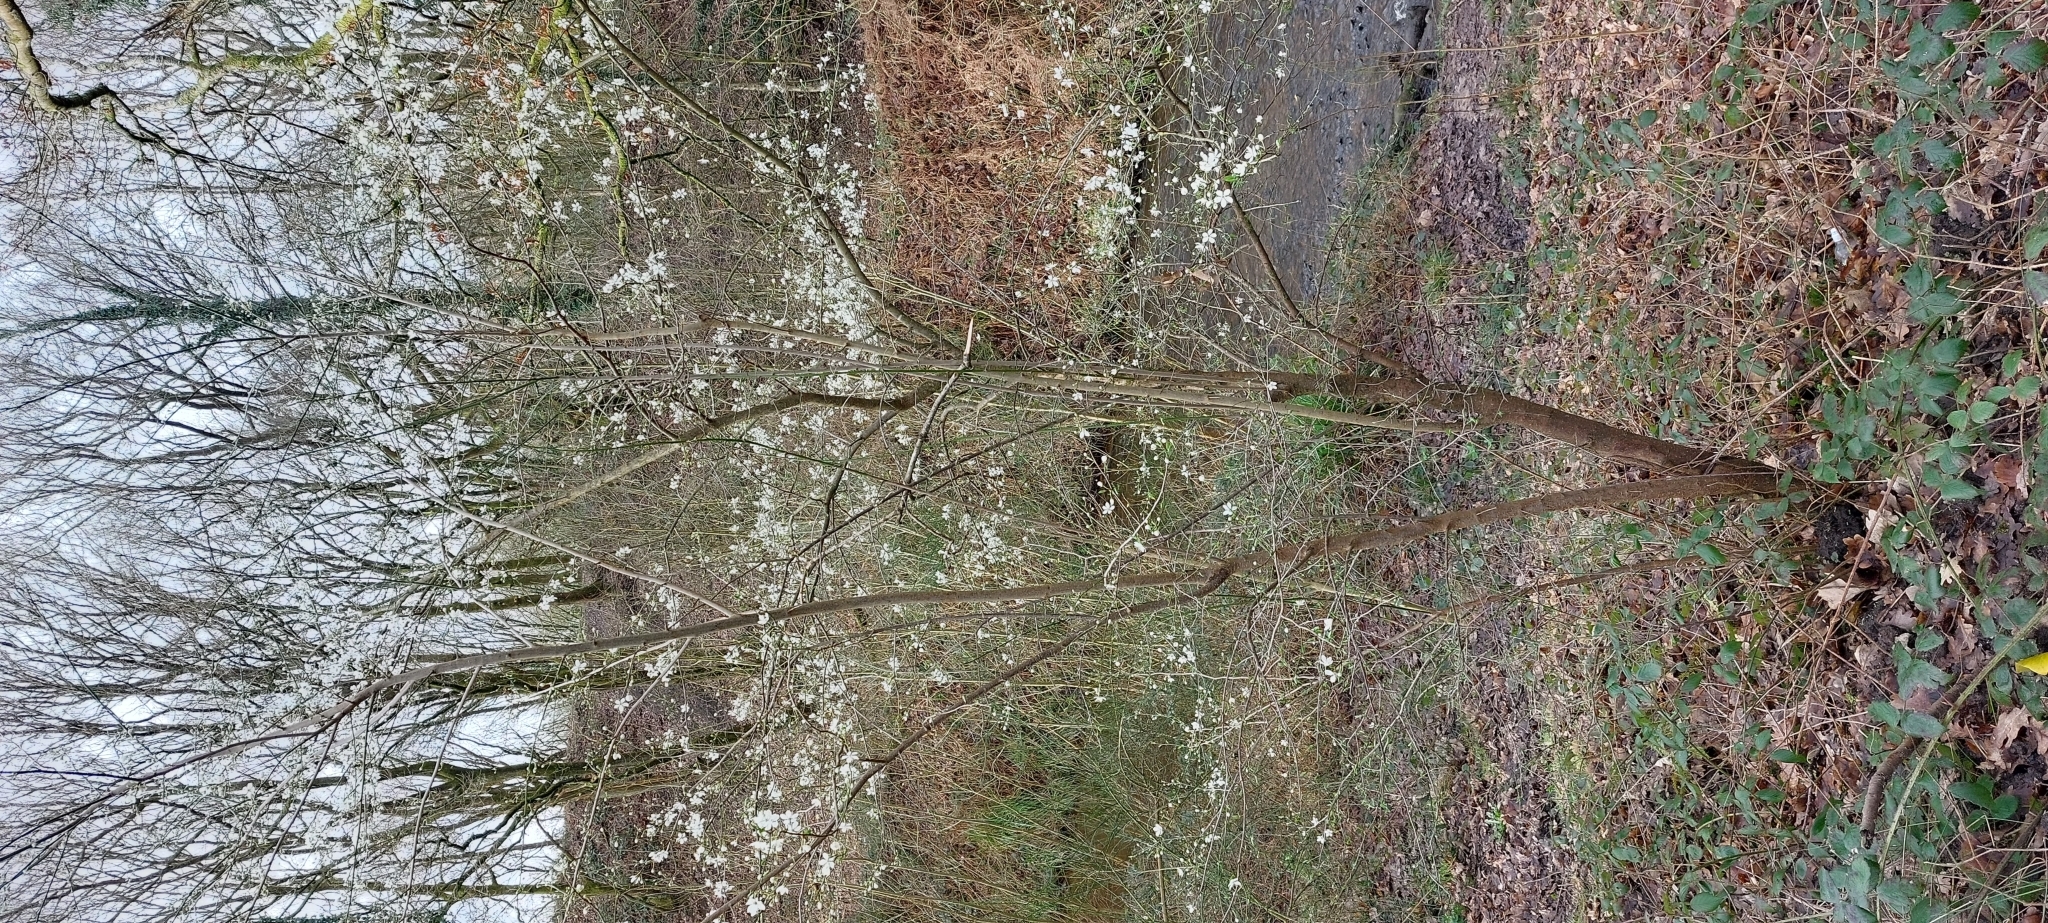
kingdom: Plantae
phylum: Tracheophyta
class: Magnoliopsida
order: Rosales
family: Rosaceae
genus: Prunus
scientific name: Prunus cerasifera
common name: Cherry plum
